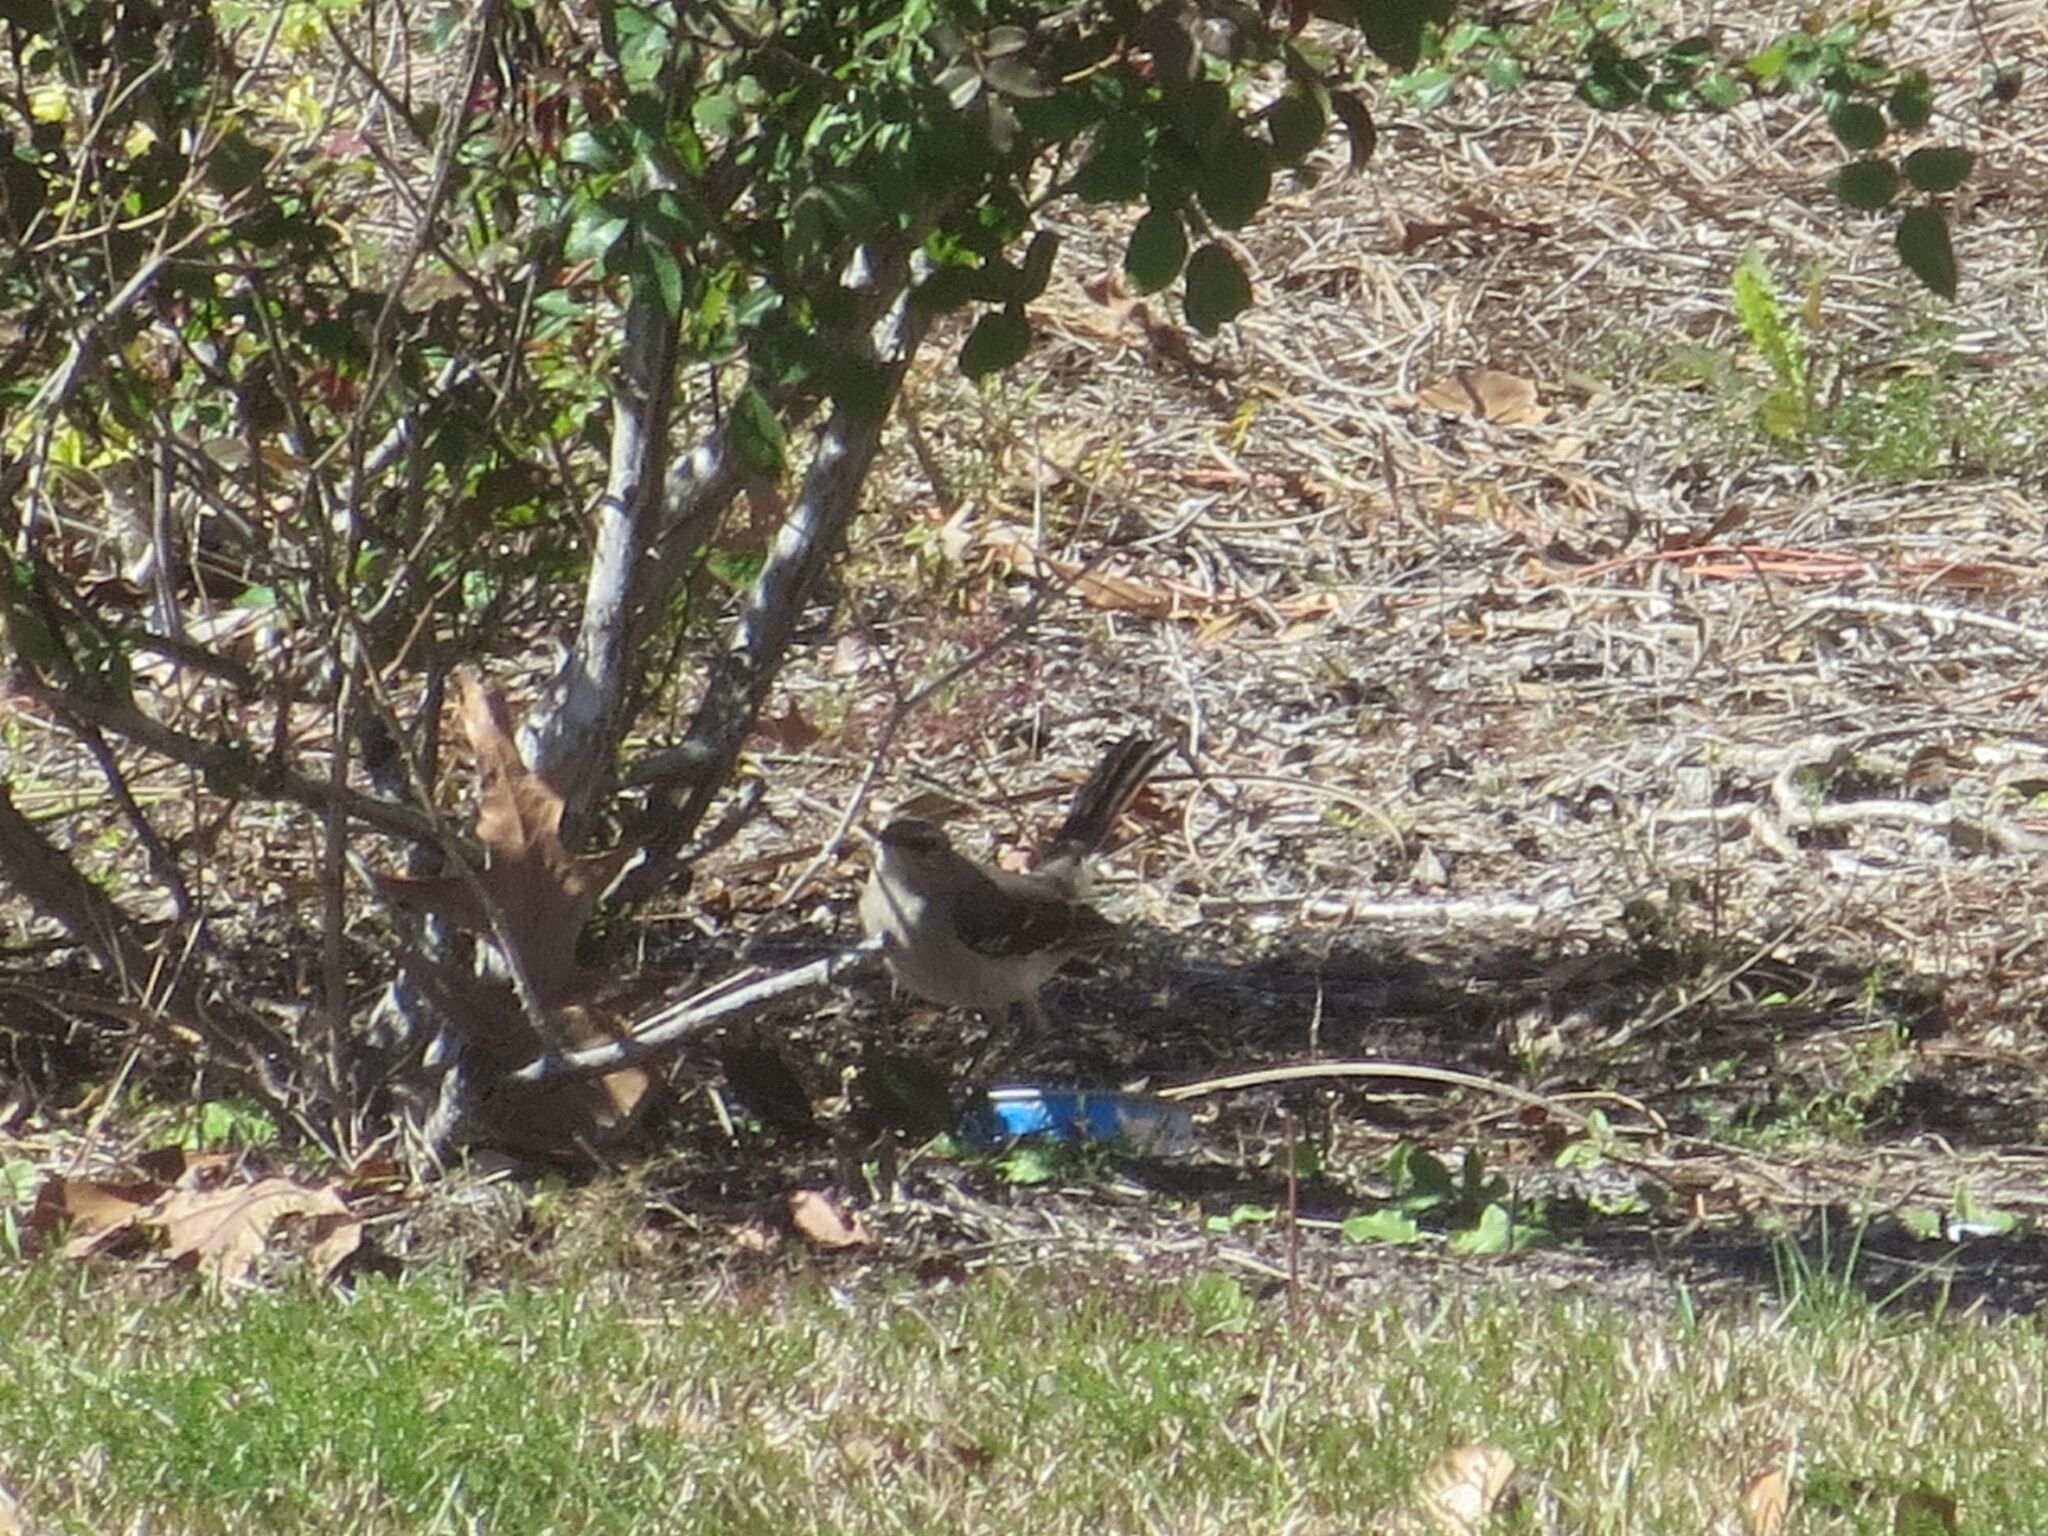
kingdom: Animalia
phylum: Chordata
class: Aves
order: Passeriformes
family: Mimidae
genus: Mimus
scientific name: Mimus polyglottos
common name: Northern mockingbird
